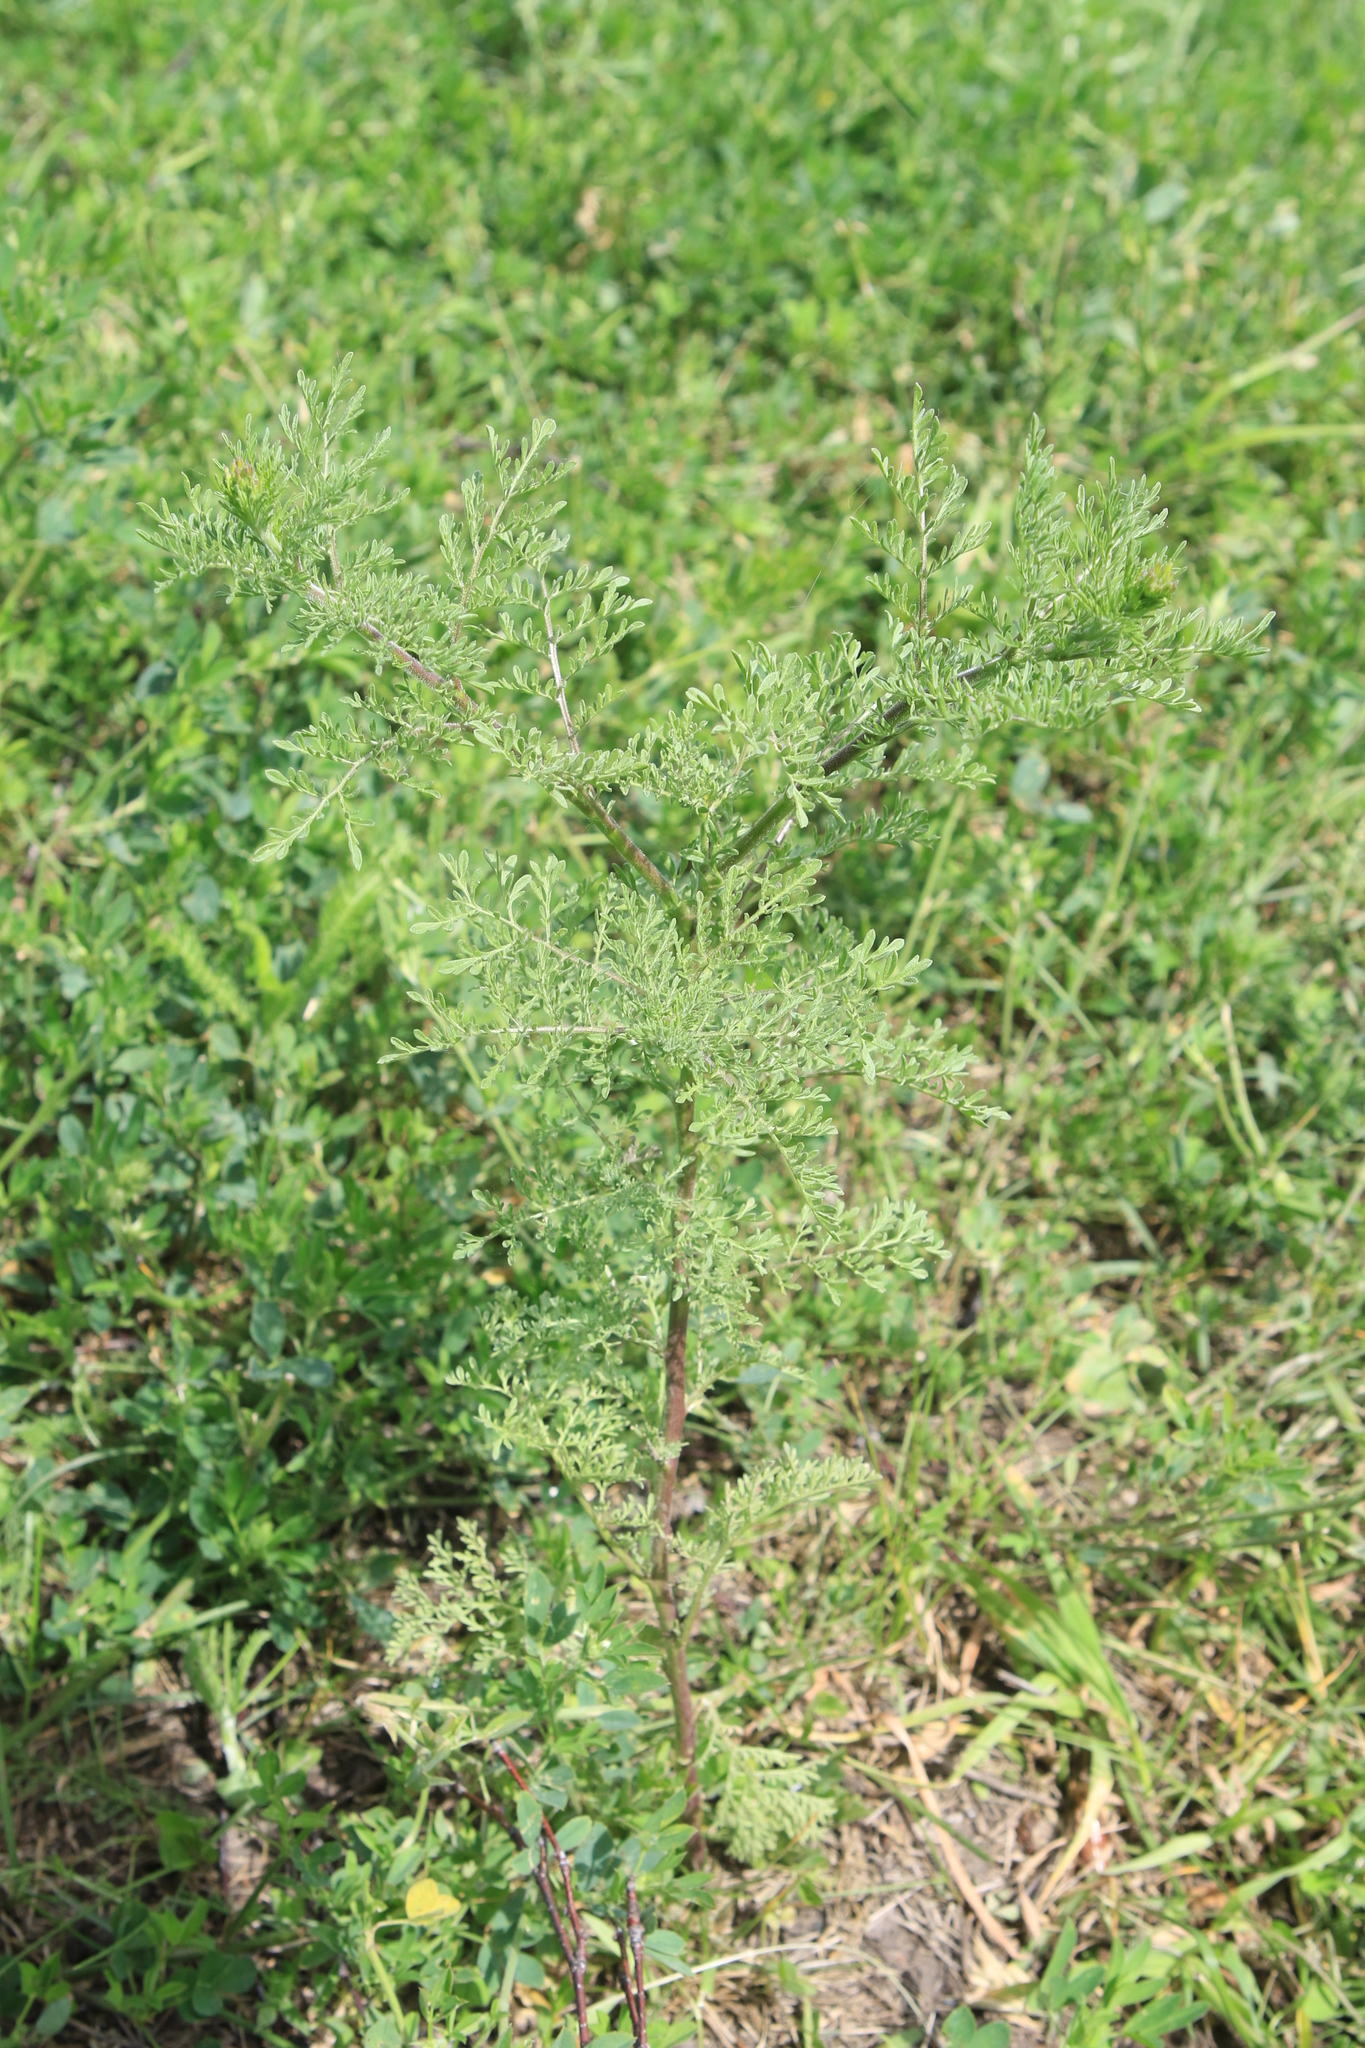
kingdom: Plantae
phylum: Tracheophyta
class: Magnoliopsida
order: Brassicales
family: Brassicaceae
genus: Descurainia
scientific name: Descurainia sophia
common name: Flixweed
